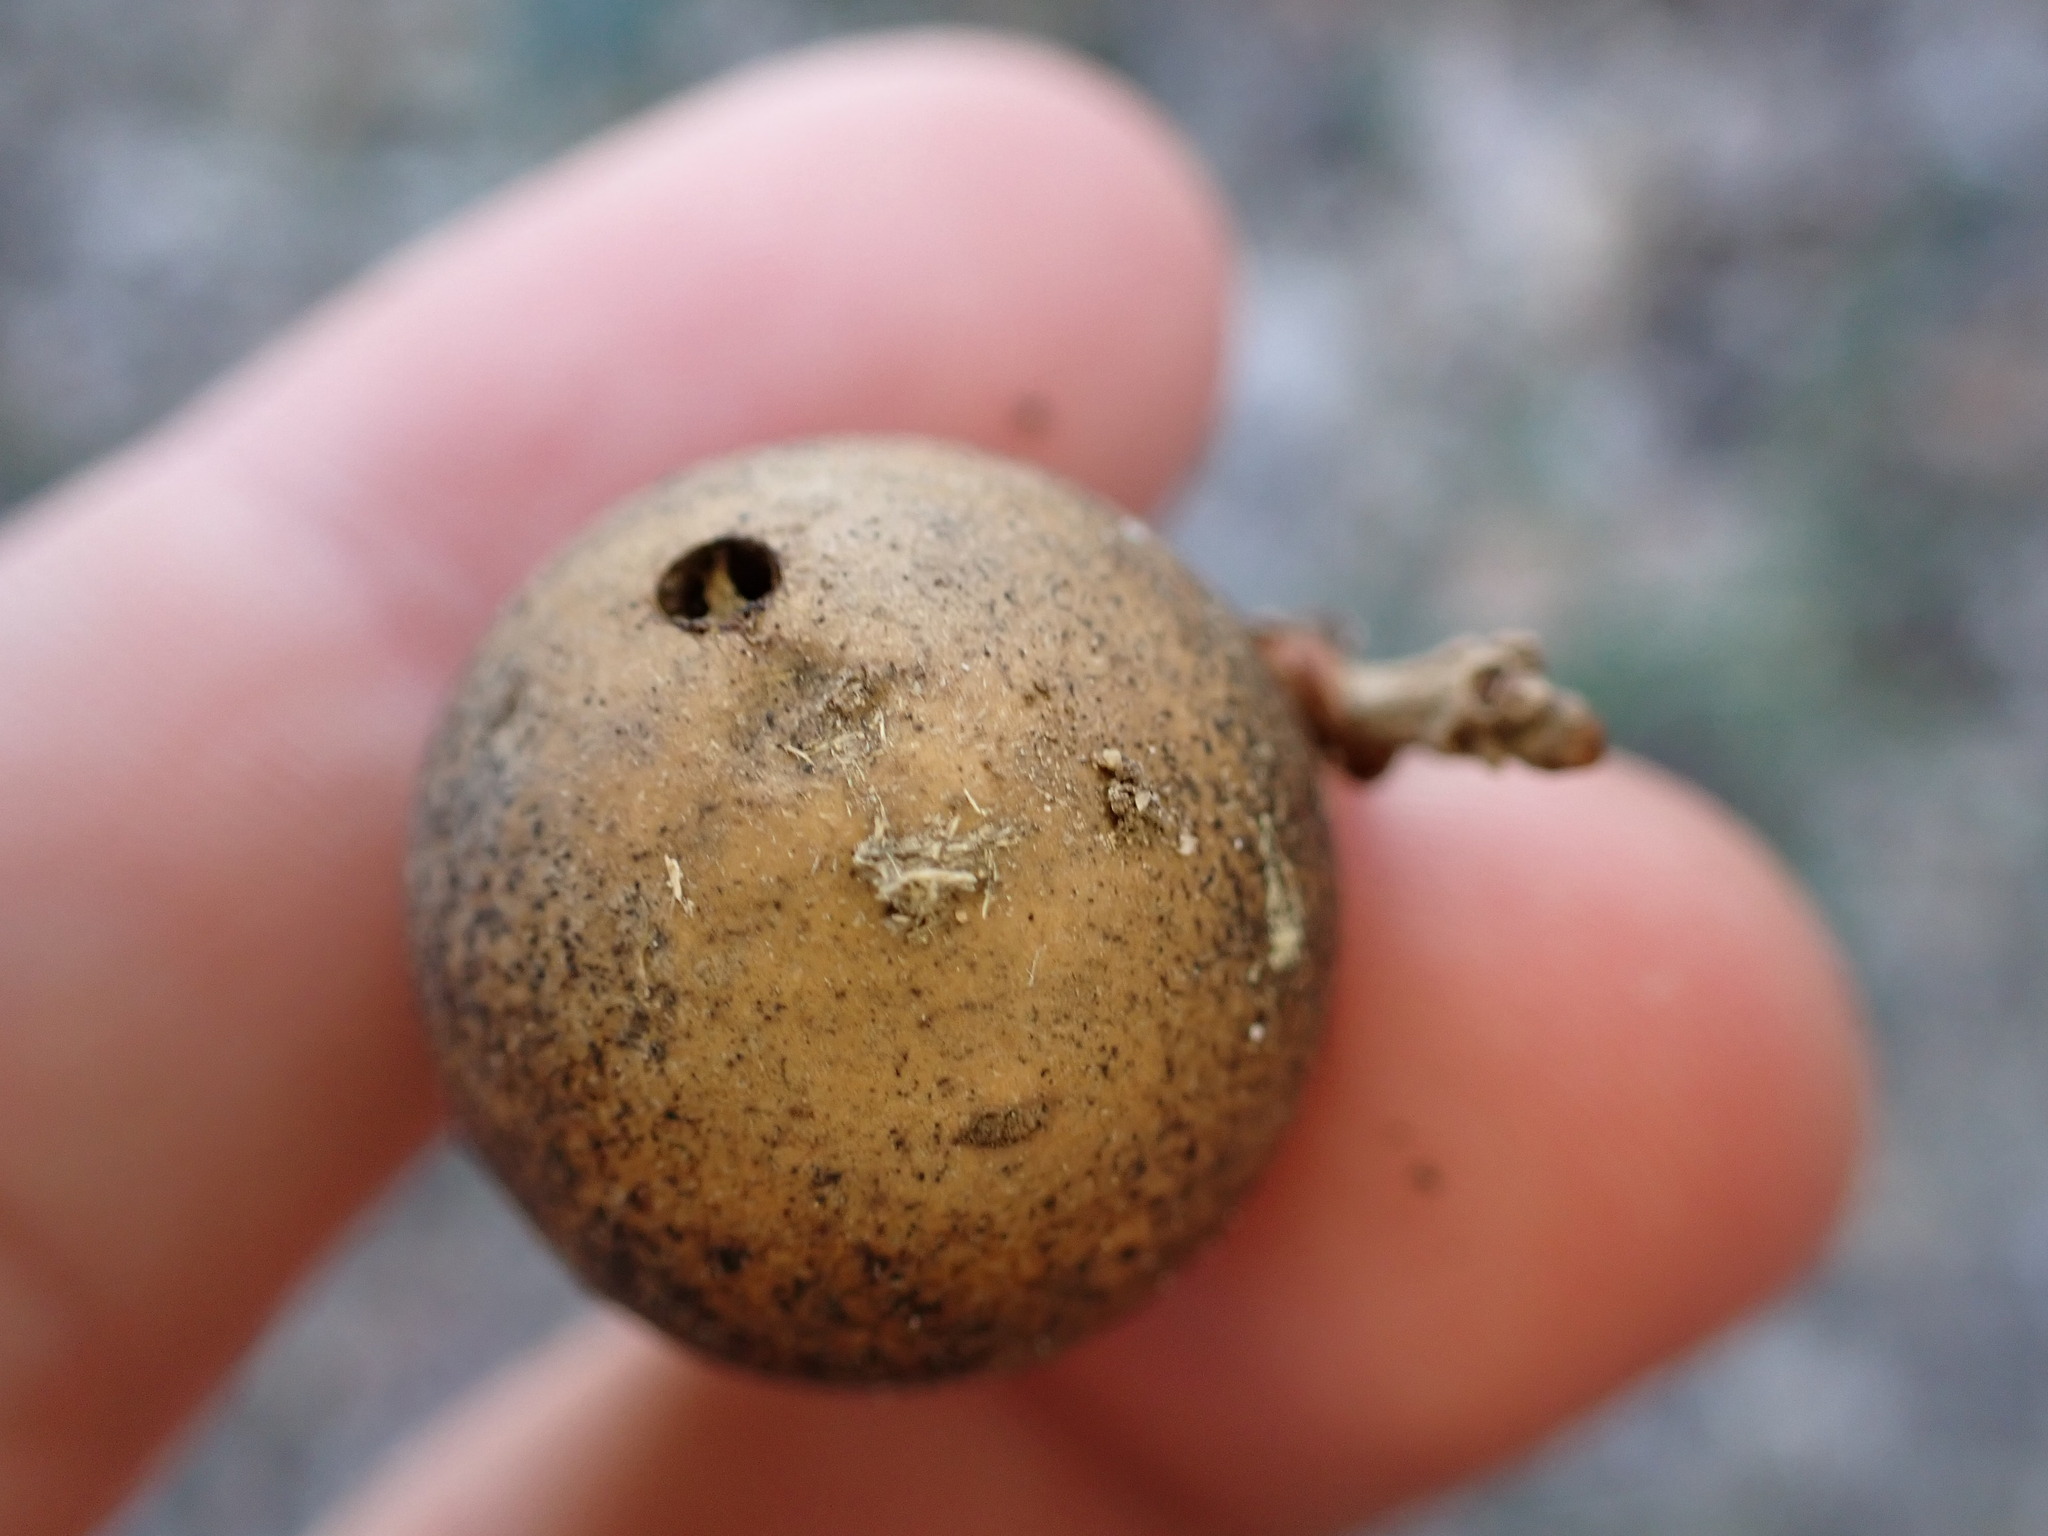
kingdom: Animalia
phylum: Arthropoda
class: Insecta
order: Hymenoptera
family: Cynipidae
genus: Andricus
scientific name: Andricus kollari
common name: Marble gall
